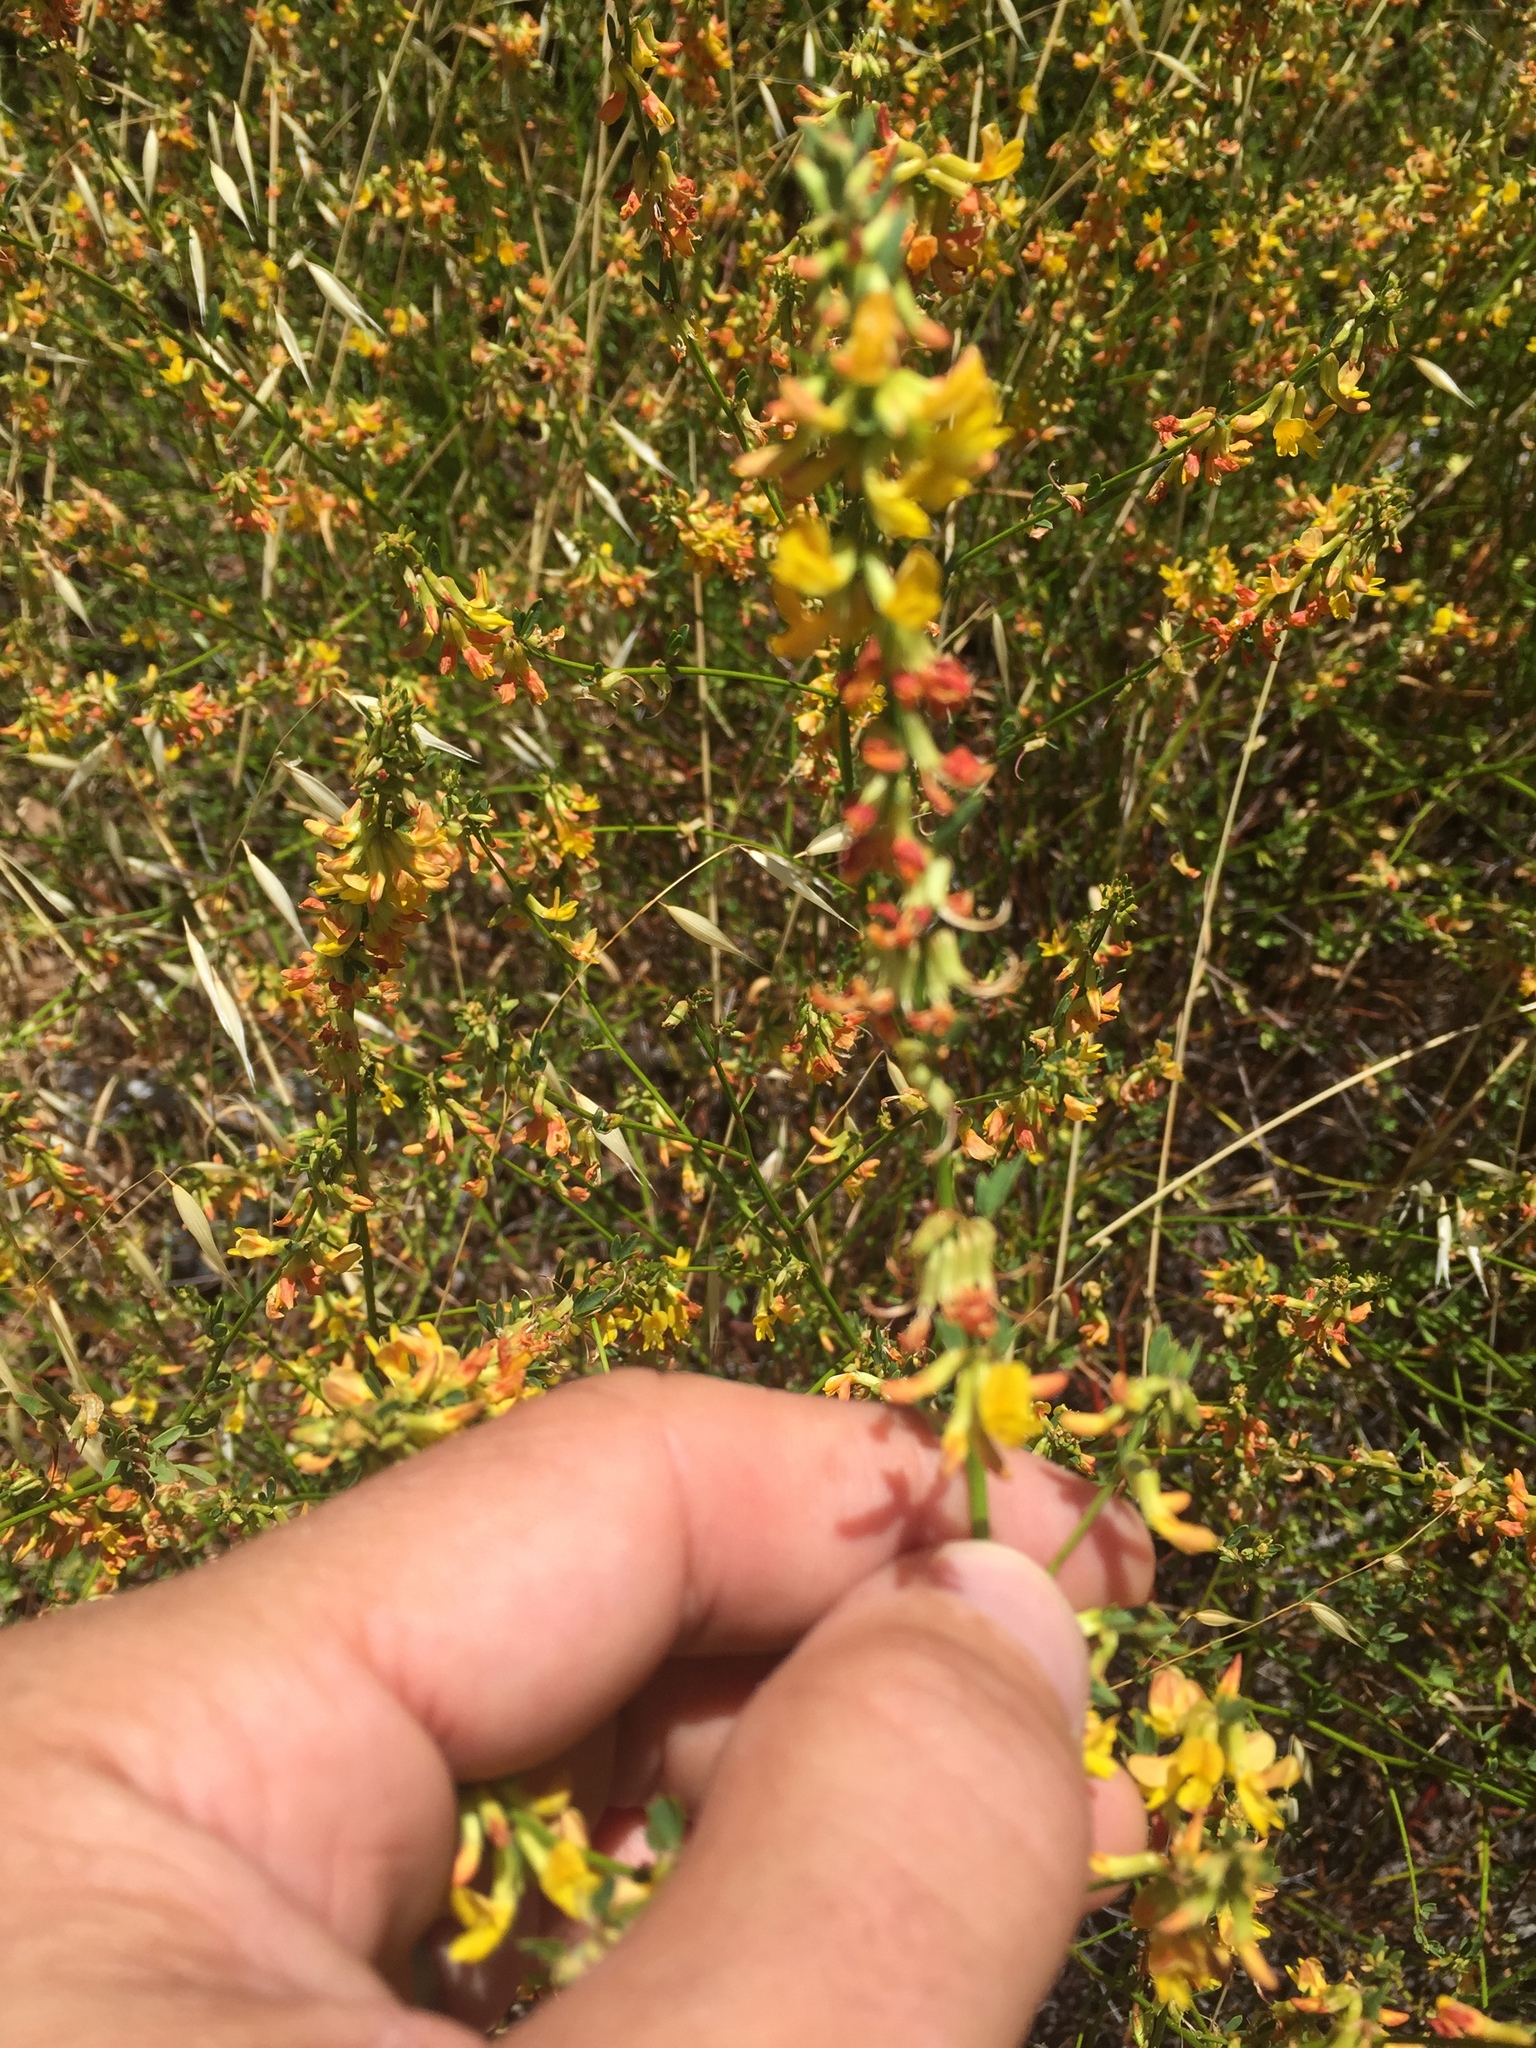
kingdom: Plantae
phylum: Tracheophyta
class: Magnoliopsida
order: Fabales
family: Fabaceae
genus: Acmispon
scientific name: Acmispon glaber
